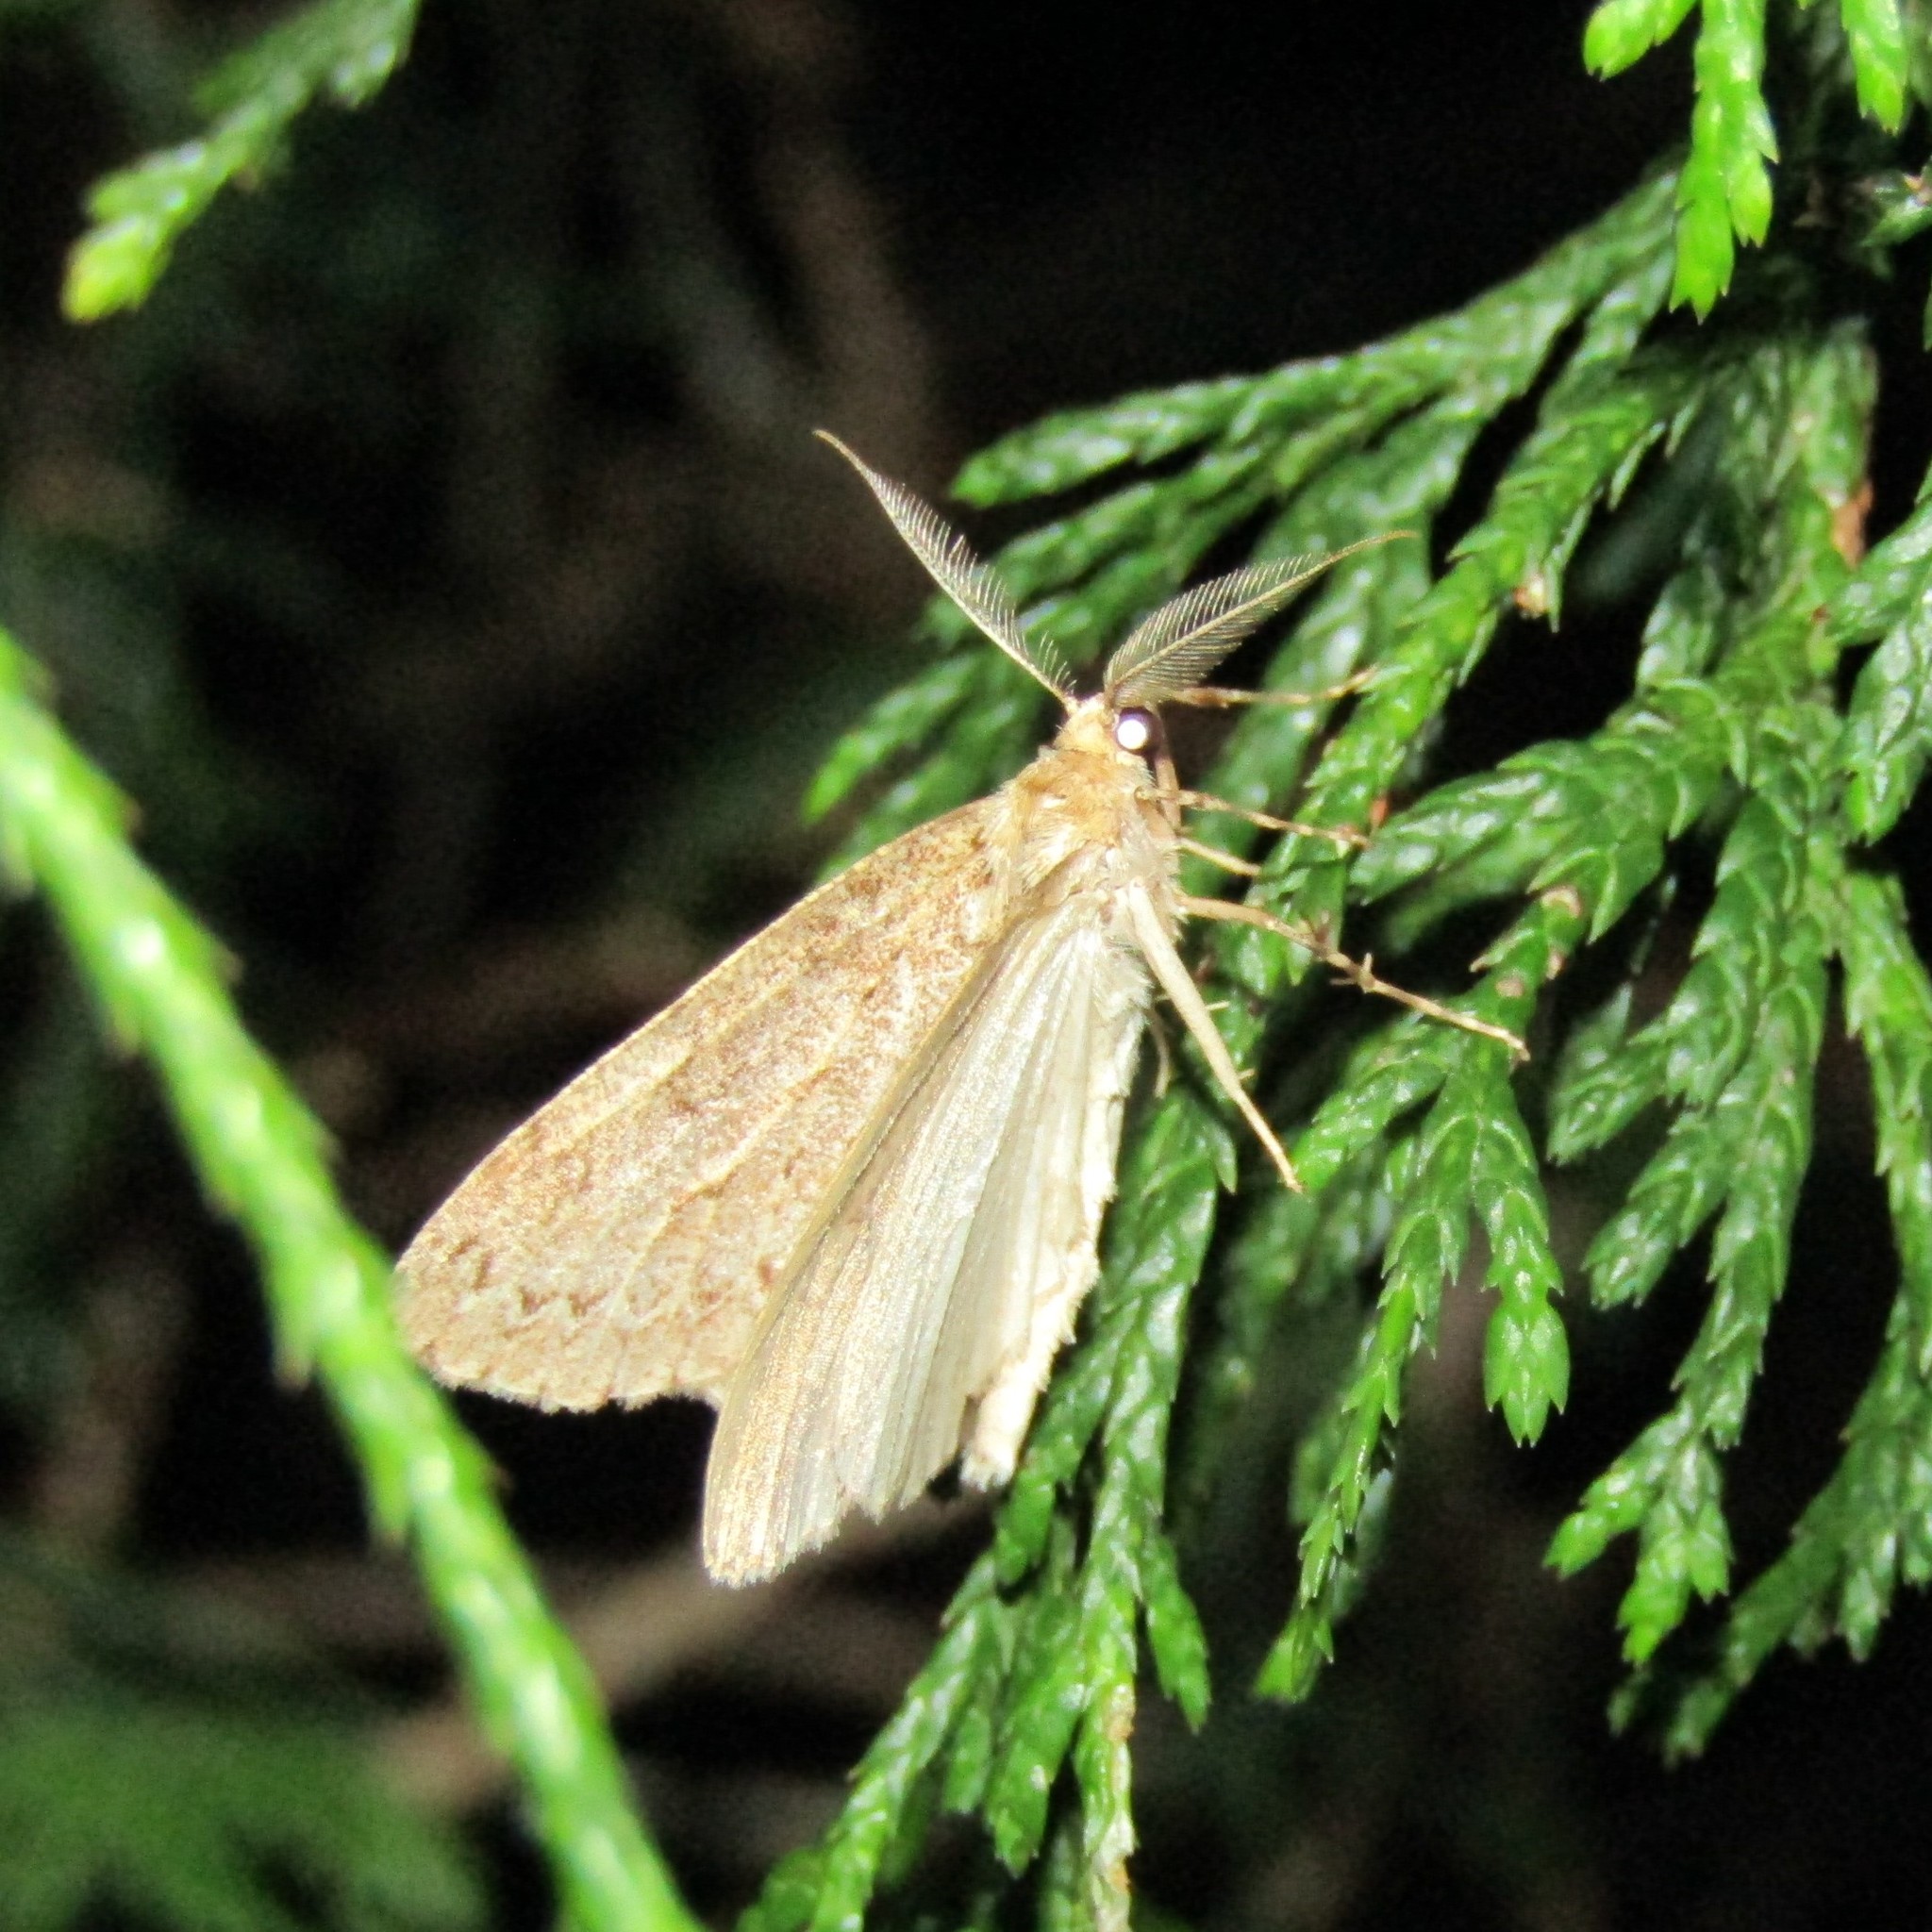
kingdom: Animalia
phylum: Arthropoda
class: Insecta
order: Lepidoptera
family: Geometridae
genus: Pseudocoremia
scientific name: Pseudocoremia fenerata
